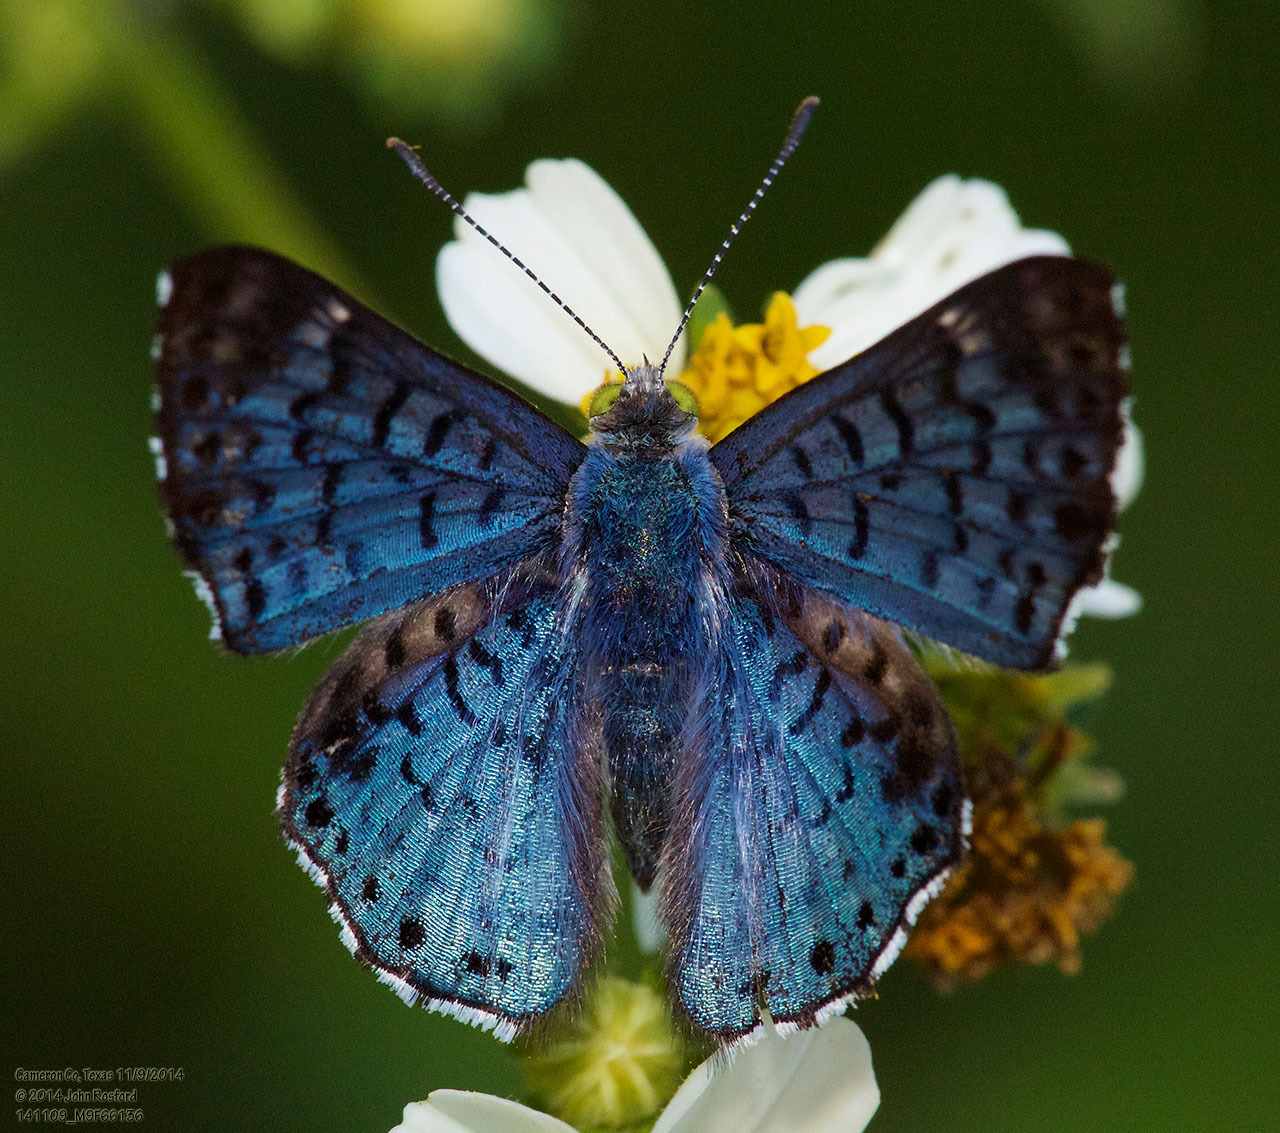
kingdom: Animalia
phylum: Arthropoda
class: Insecta
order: Lepidoptera
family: Riodinidae
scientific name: Riodinidae
